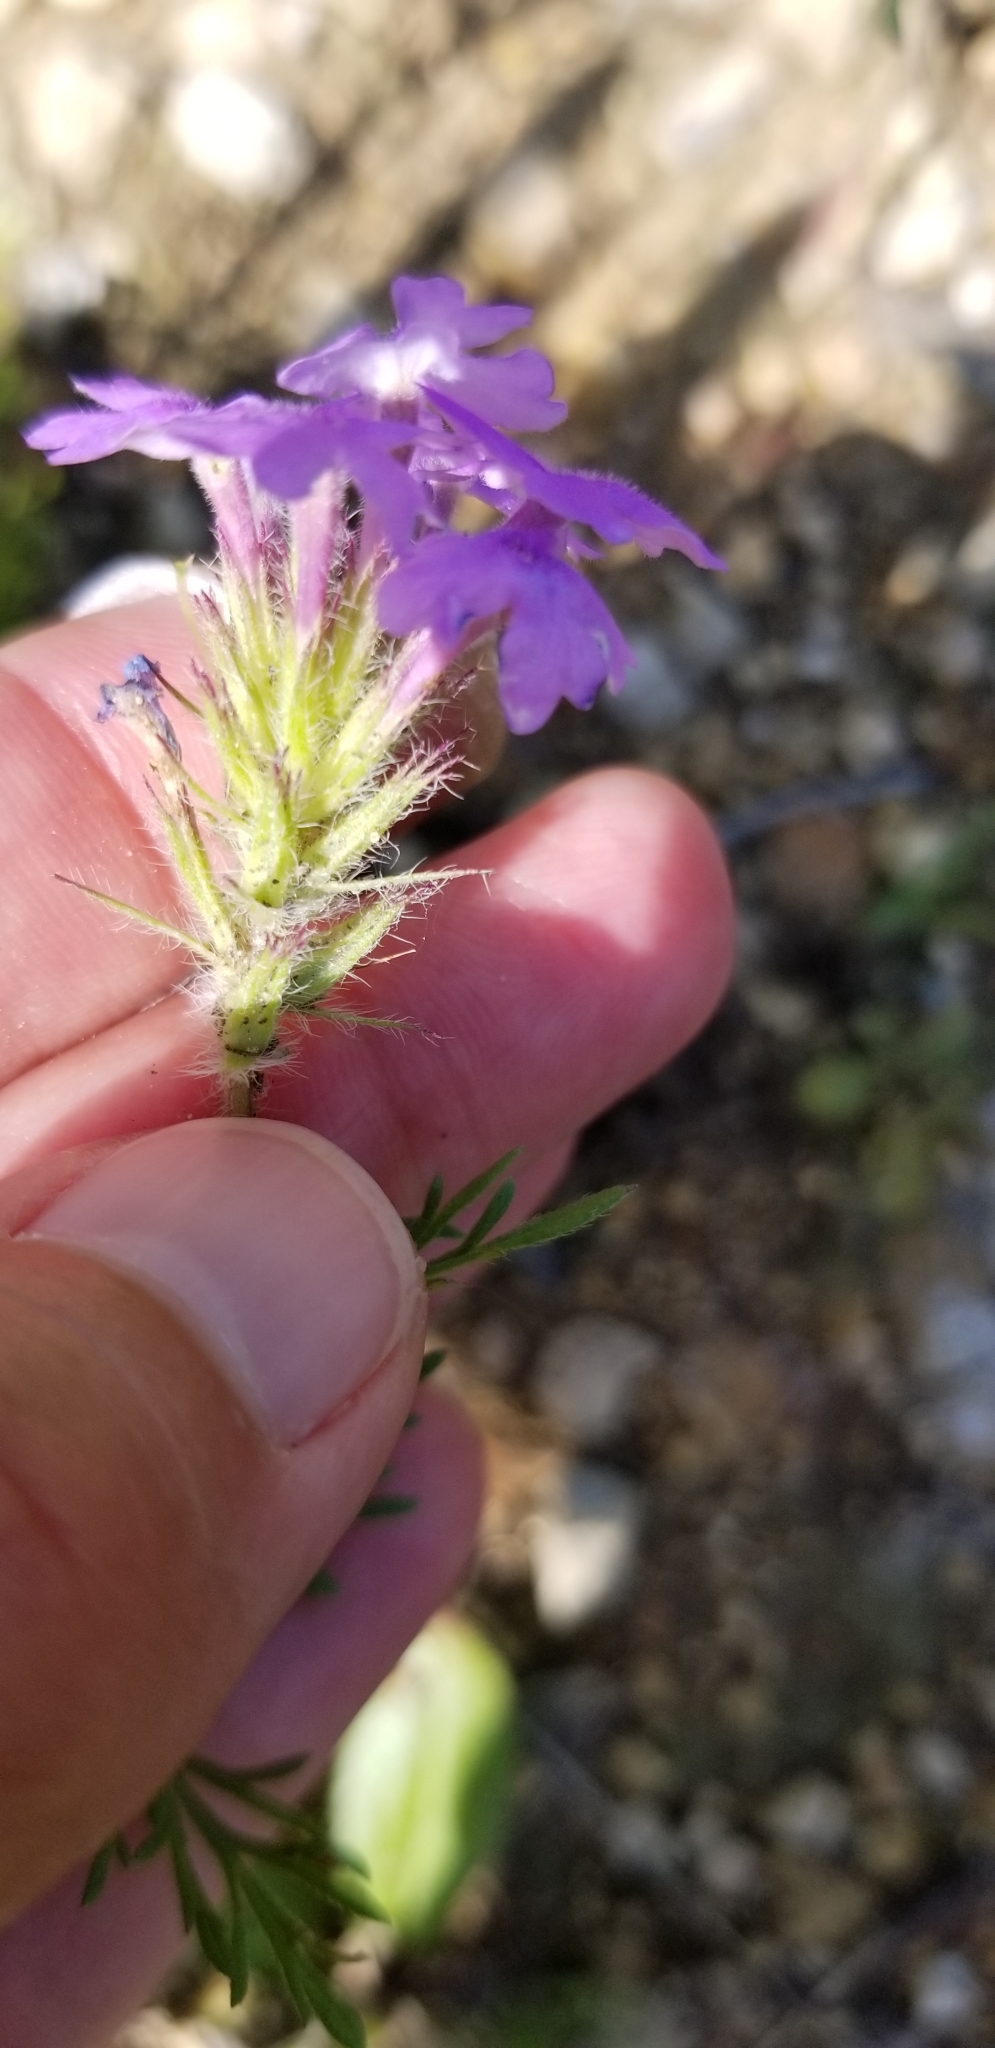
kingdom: Plantae
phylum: Tracheophyta
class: Magnoliopsida
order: Lamiales
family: Verbenaceae
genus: Verbena
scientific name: Verbena bipinnatifida
